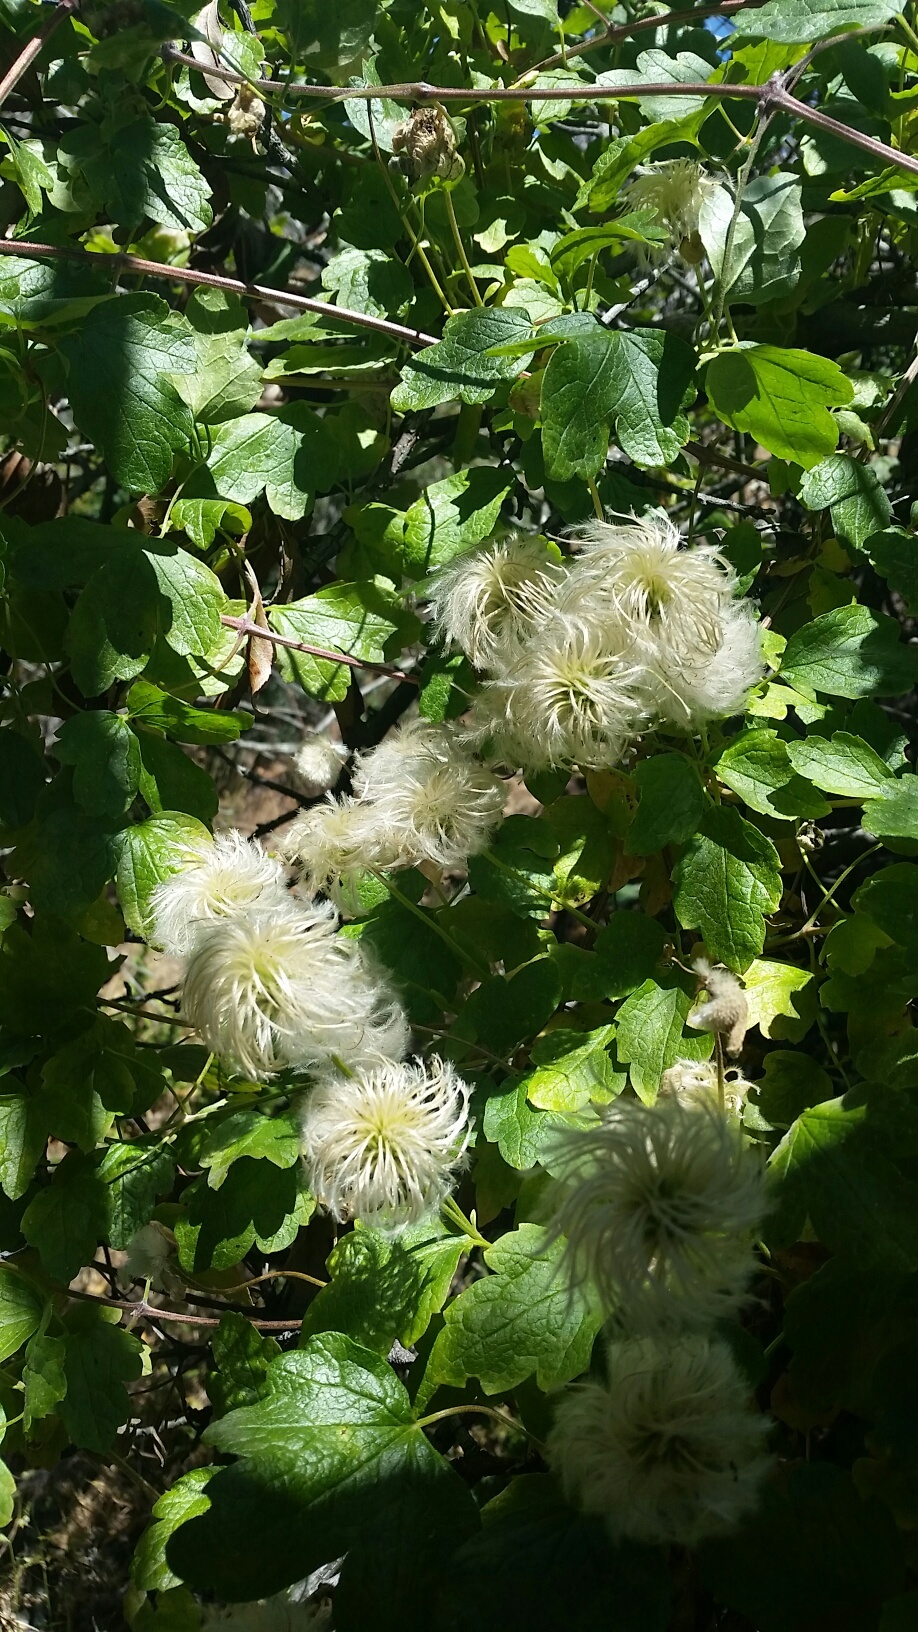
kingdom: Plantae
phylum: Tracheophyta
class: Magnoliopsida
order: Ranunculales
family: Ranunculaceae
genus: Clematis
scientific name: Clematis lasiantha
